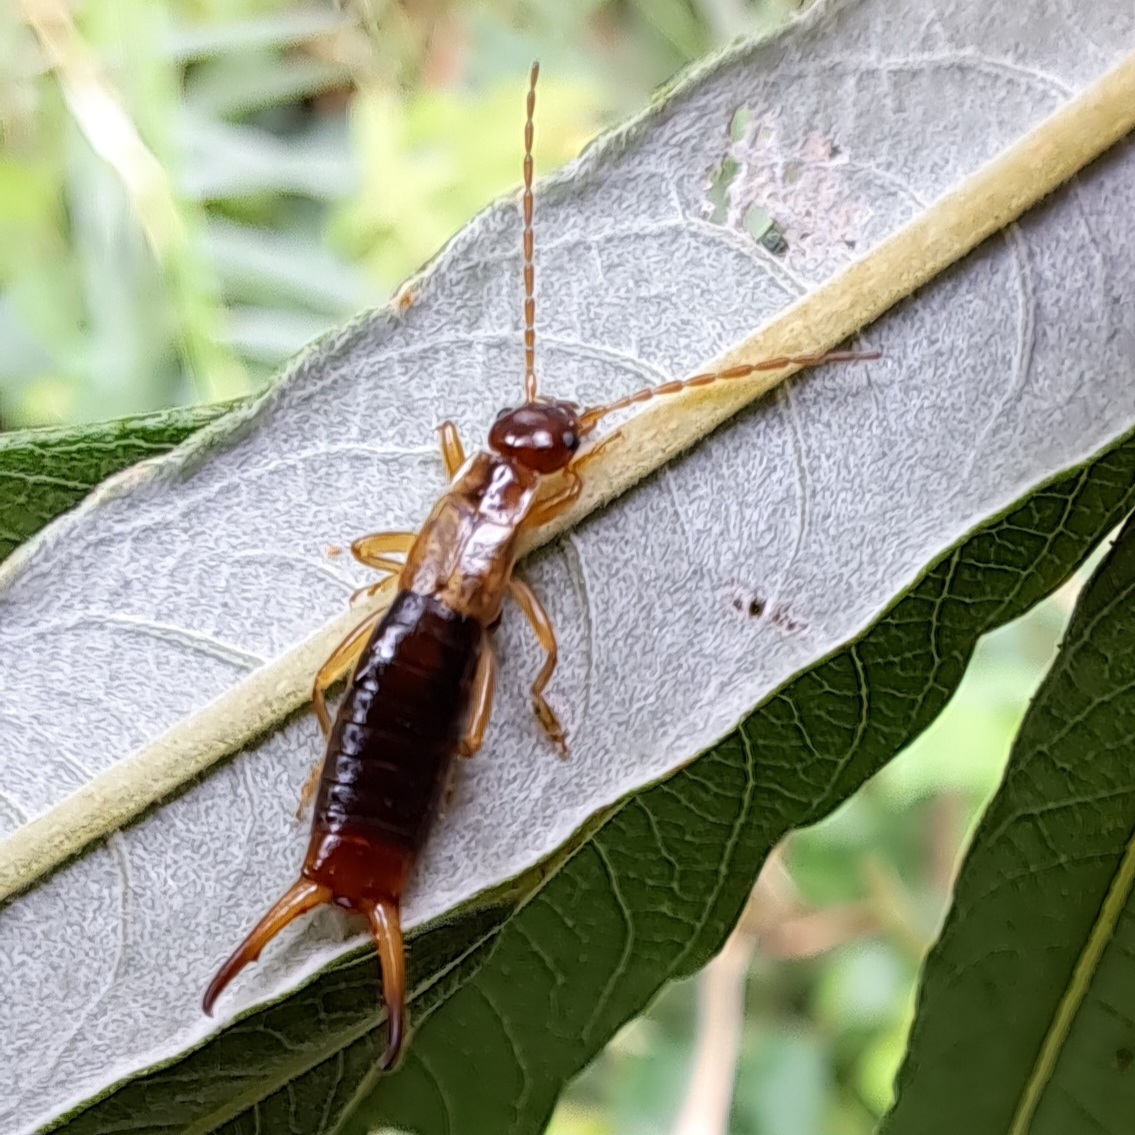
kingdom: Animalia
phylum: Arthropoda
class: Insecta
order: Dermaptera
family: Forficulidae
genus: Apterygida
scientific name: Apterygida albipennis
